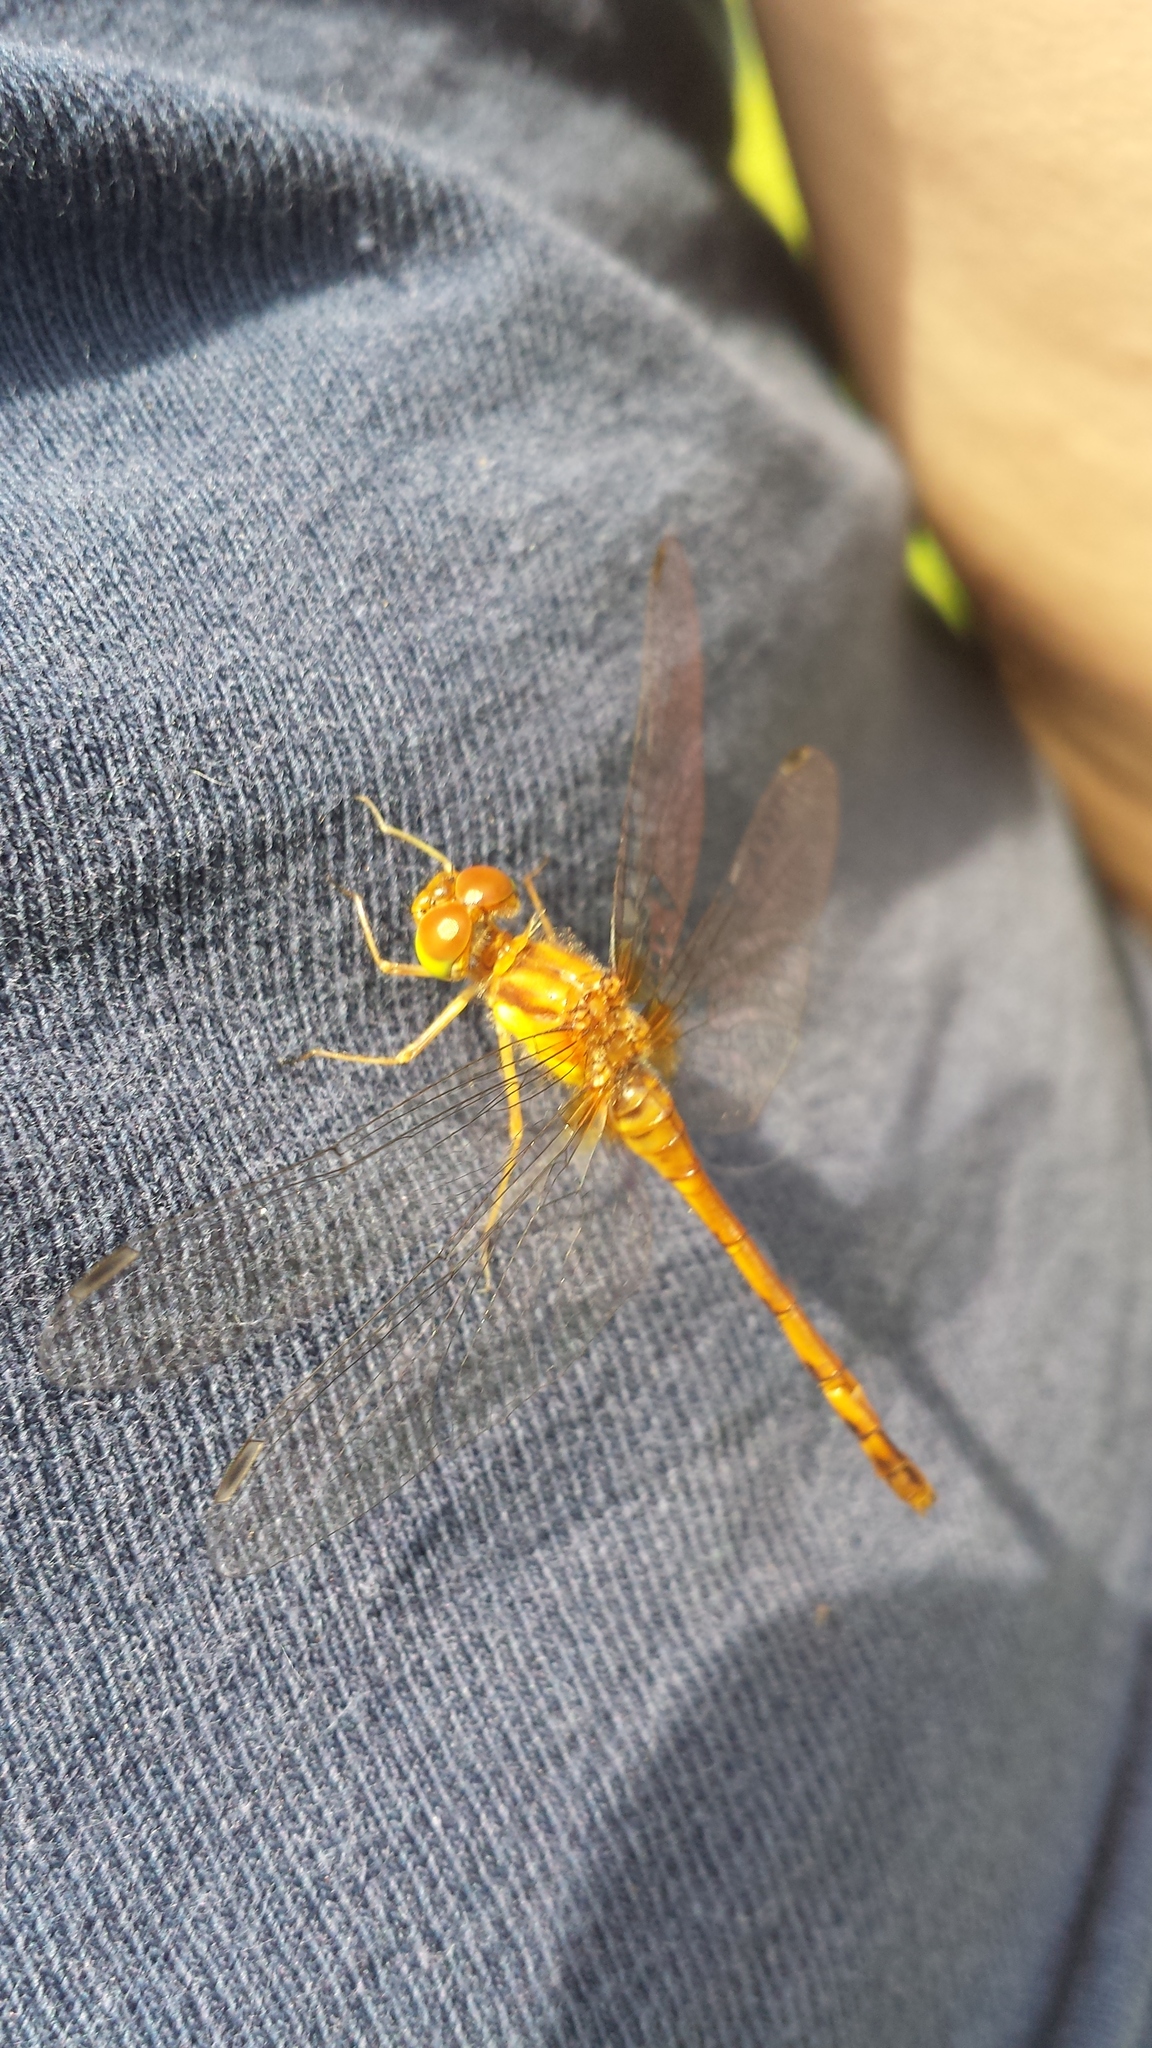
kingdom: Animalia
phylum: Arthropoda
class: Insecta
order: Odonata
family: Libellulidae
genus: Sympetrum
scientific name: Sympetrum vicinum
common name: Autumn meadowhawk
